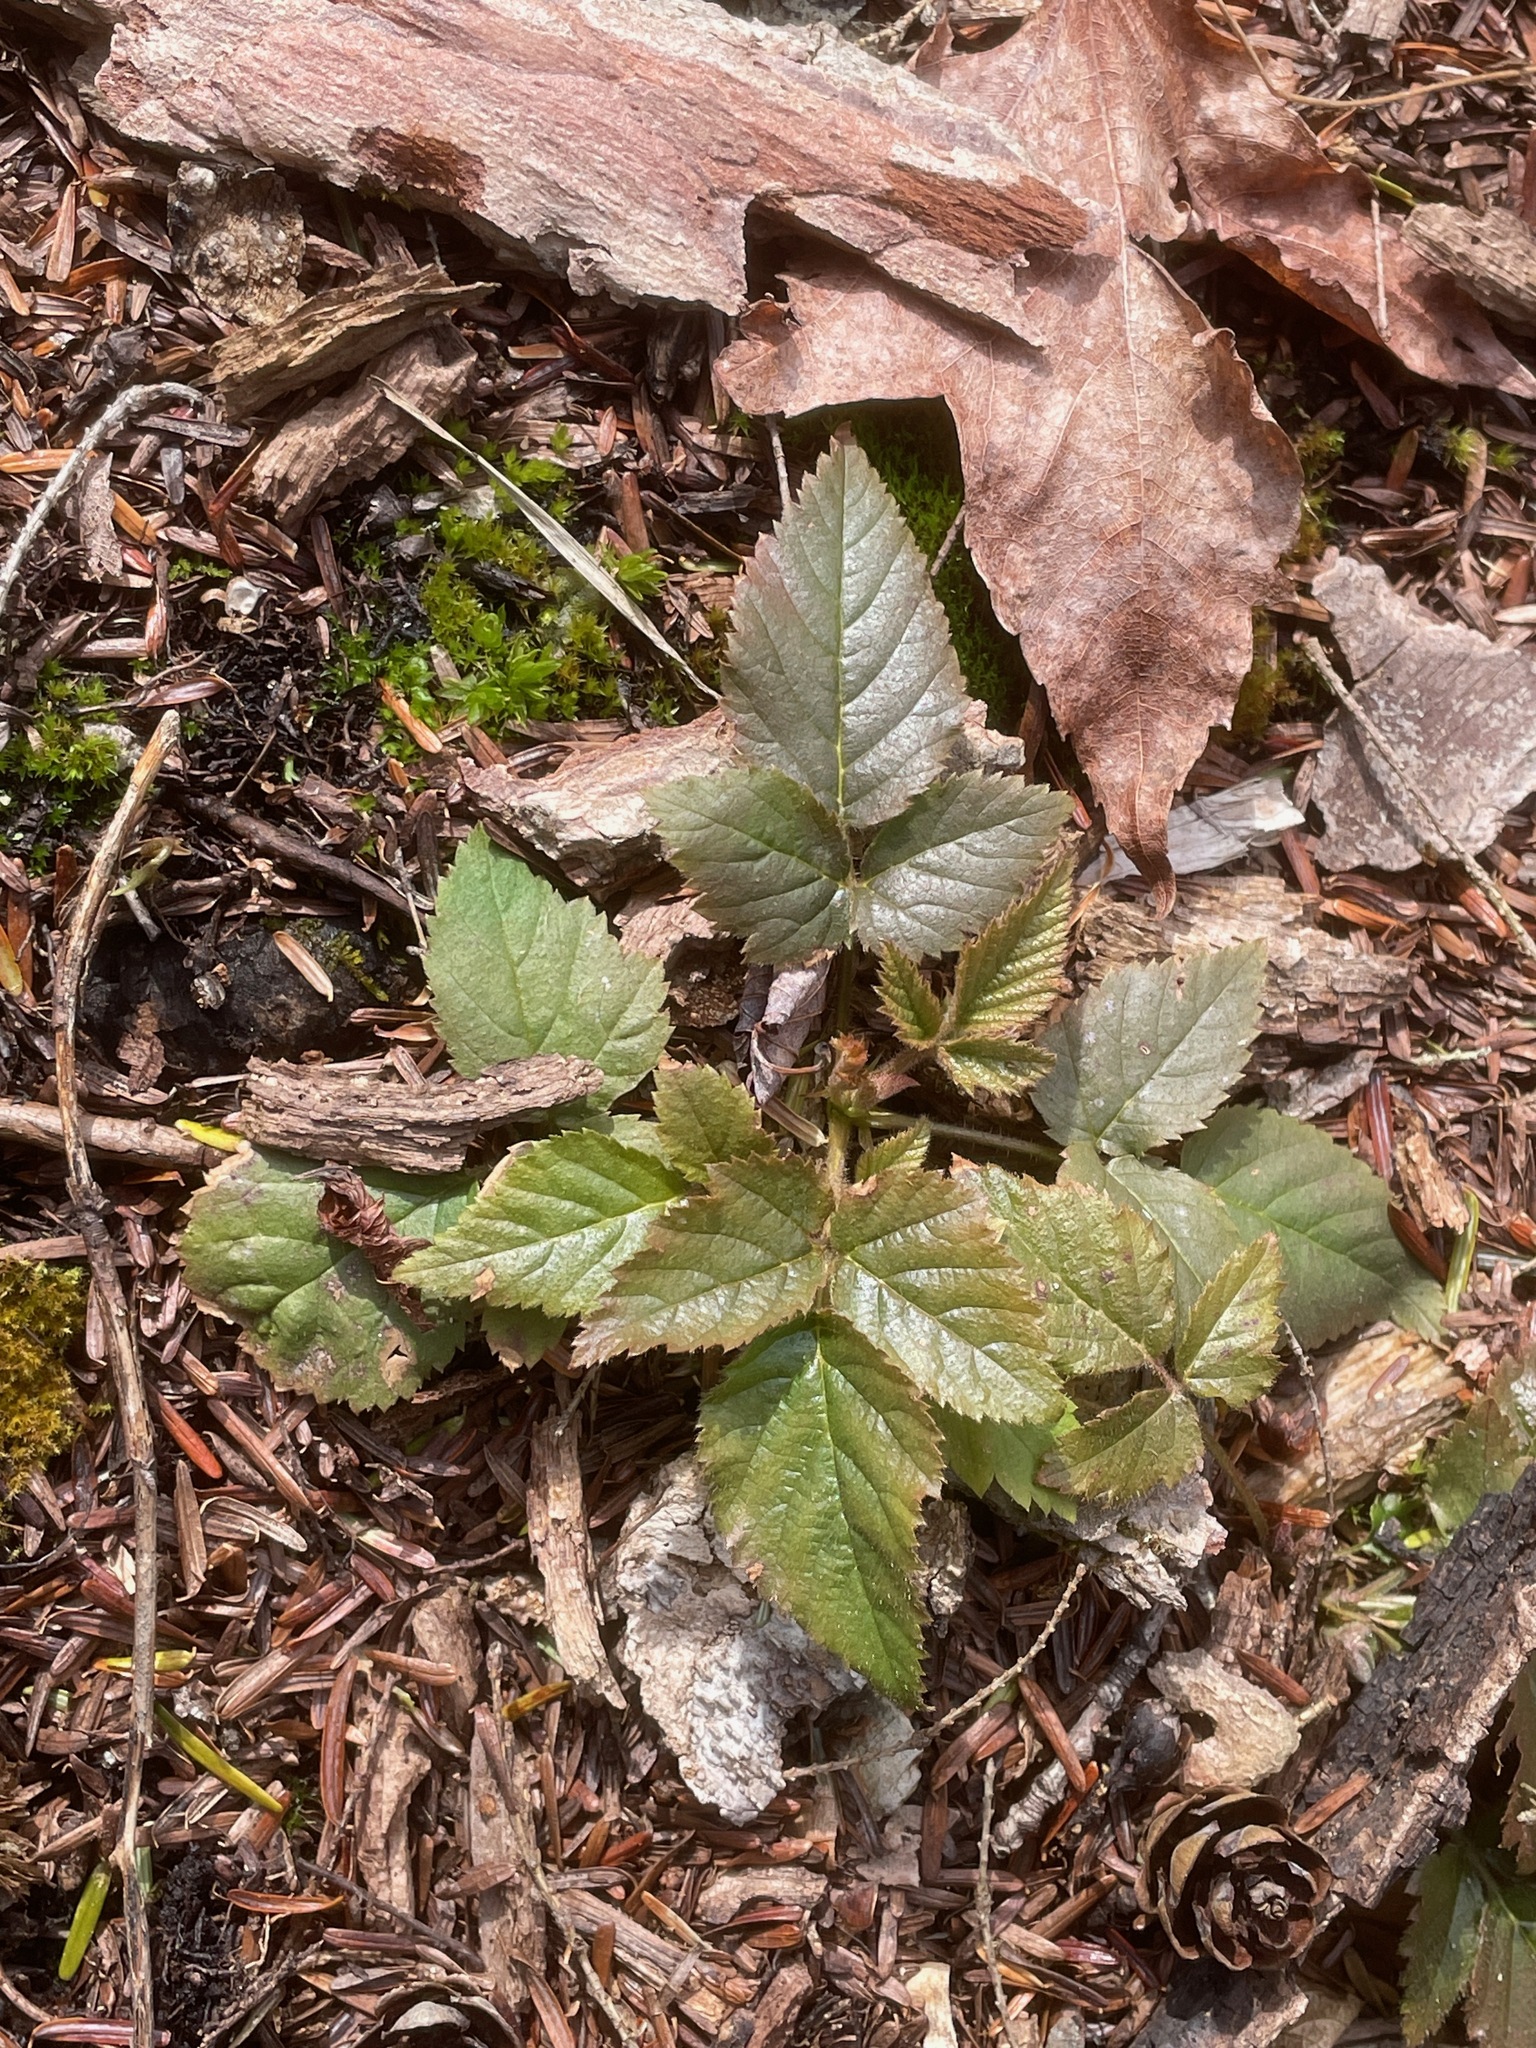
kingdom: Plantae
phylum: Tracheophyta
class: Magnoliopsida
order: Rosales
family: Rosaceae
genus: Rubus
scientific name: Rubus hispidus
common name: Running blackberry
